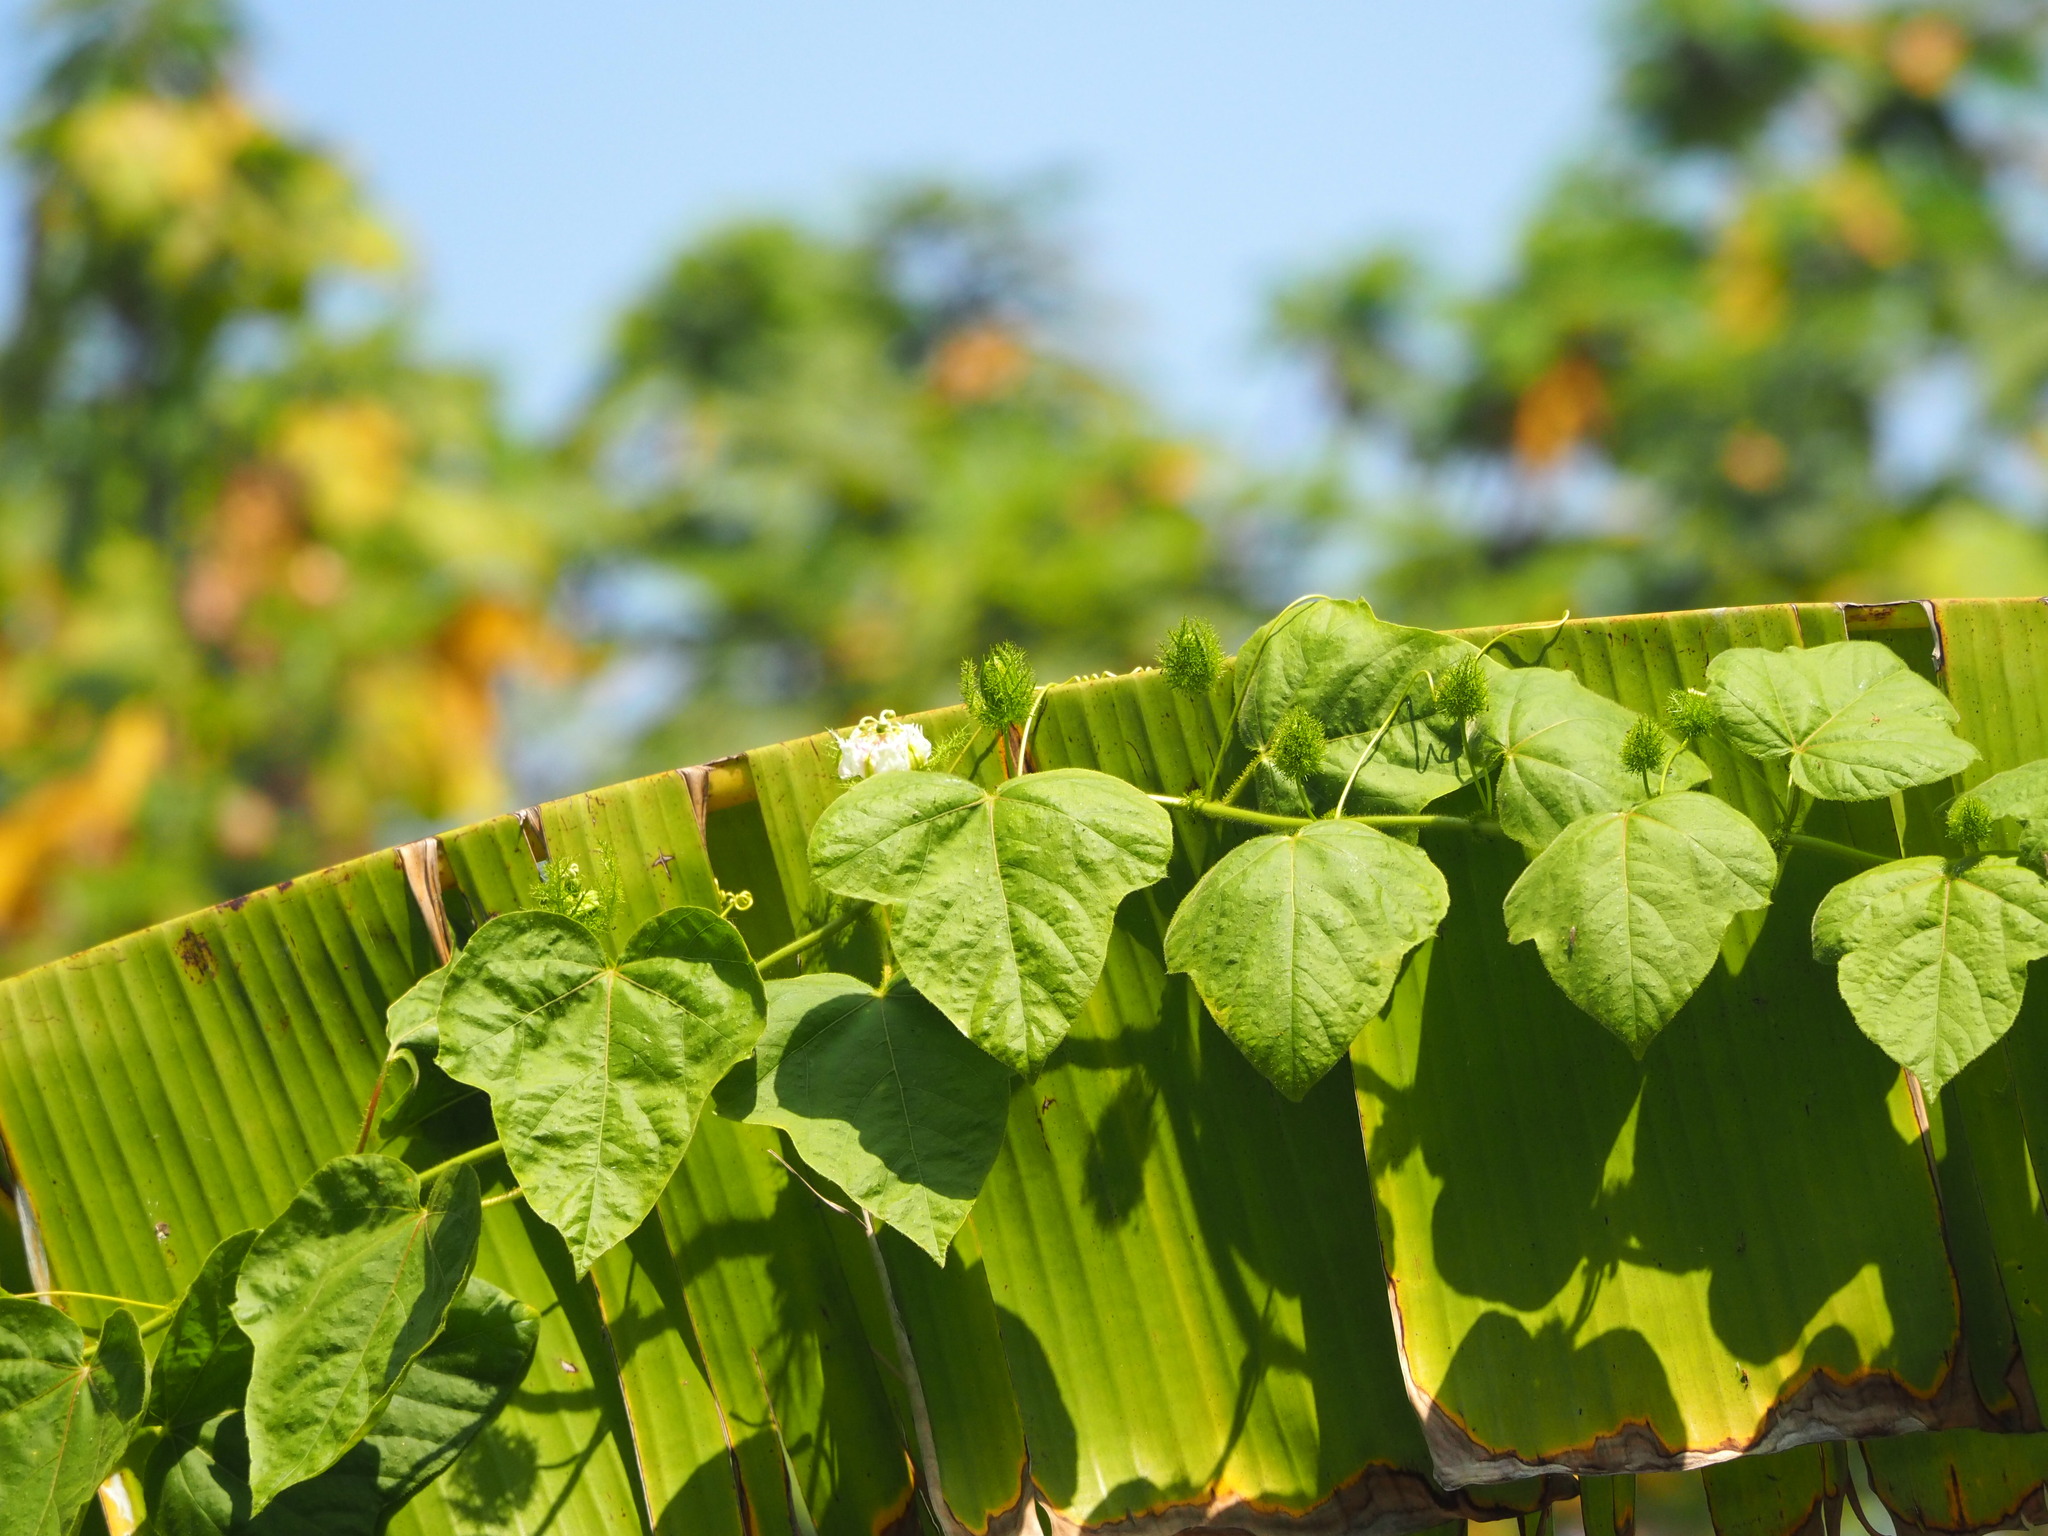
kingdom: Plantae
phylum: Tracheophyta
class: Magnoliopsida
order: Malpighiales
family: Passifloraceae
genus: Passiflora
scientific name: Passiflora vesicaria
